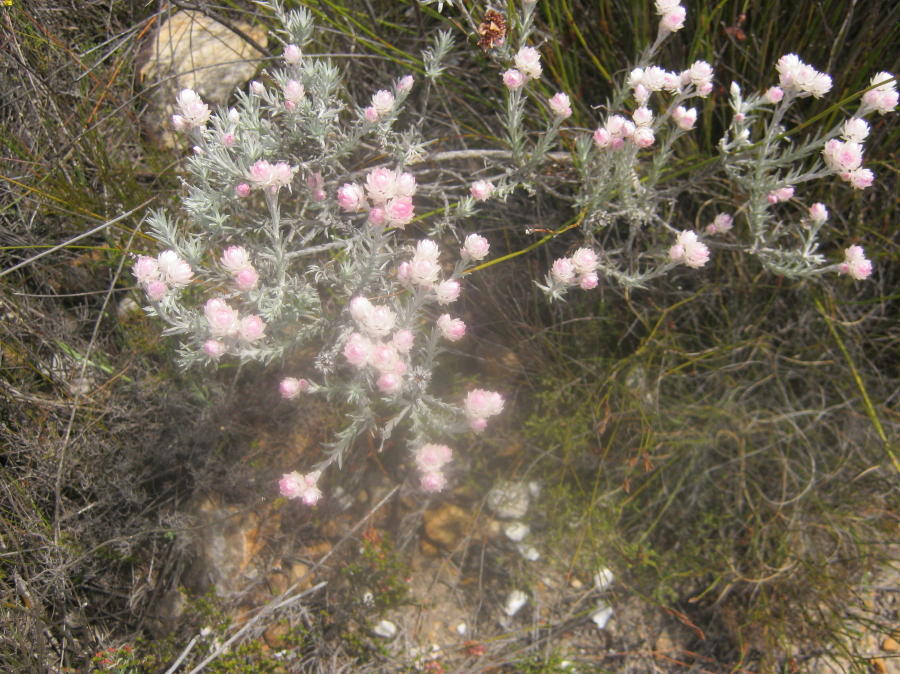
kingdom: Plantae
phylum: Tracheophyta
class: Magnoliopsida
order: Asterales
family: Asteraceae
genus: Achyranthemum
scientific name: Achyranthemum paniculatum
